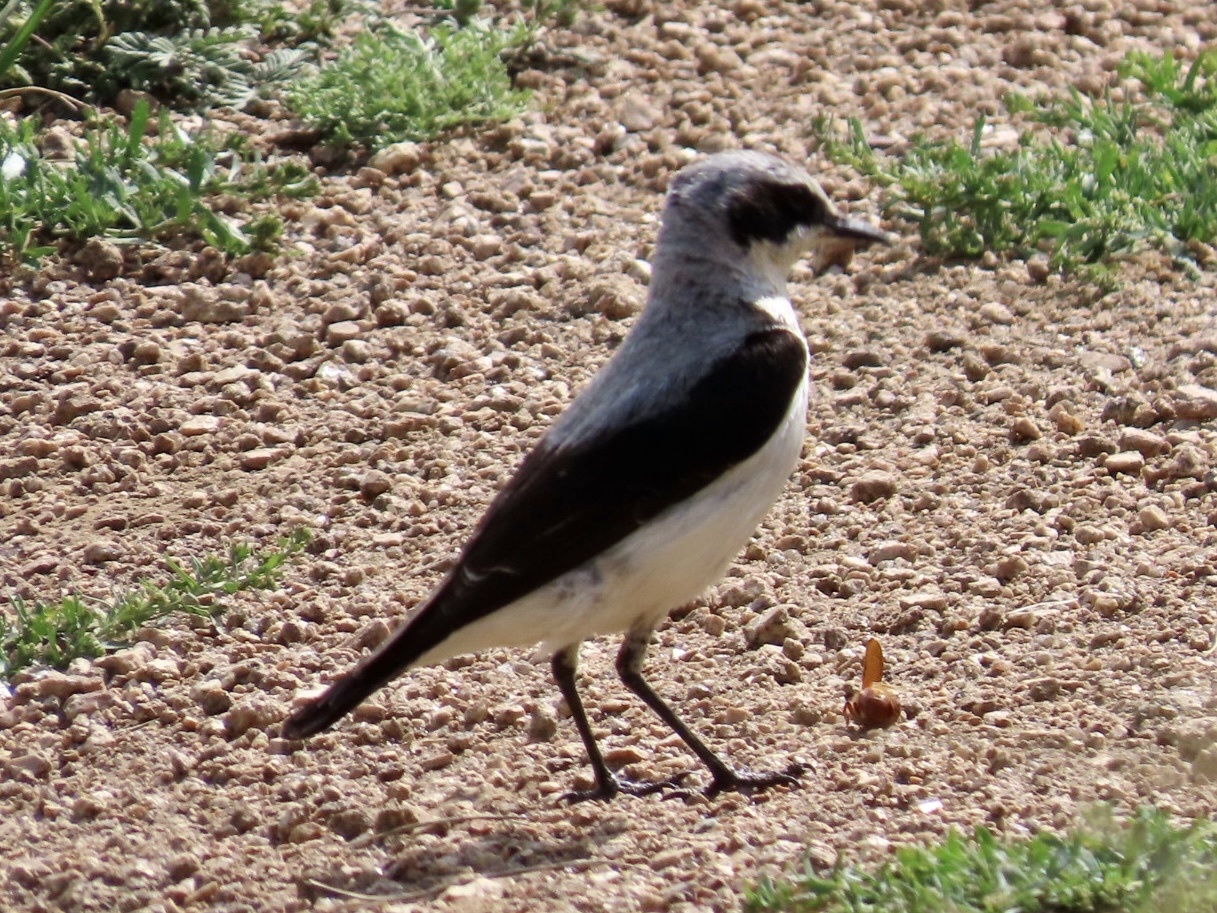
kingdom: Animalia
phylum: Chordata
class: Aves
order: Passeriformes
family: Muscicapidae
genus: Oenanthe
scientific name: Oenanthe oenanthe
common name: Northern wheatear
